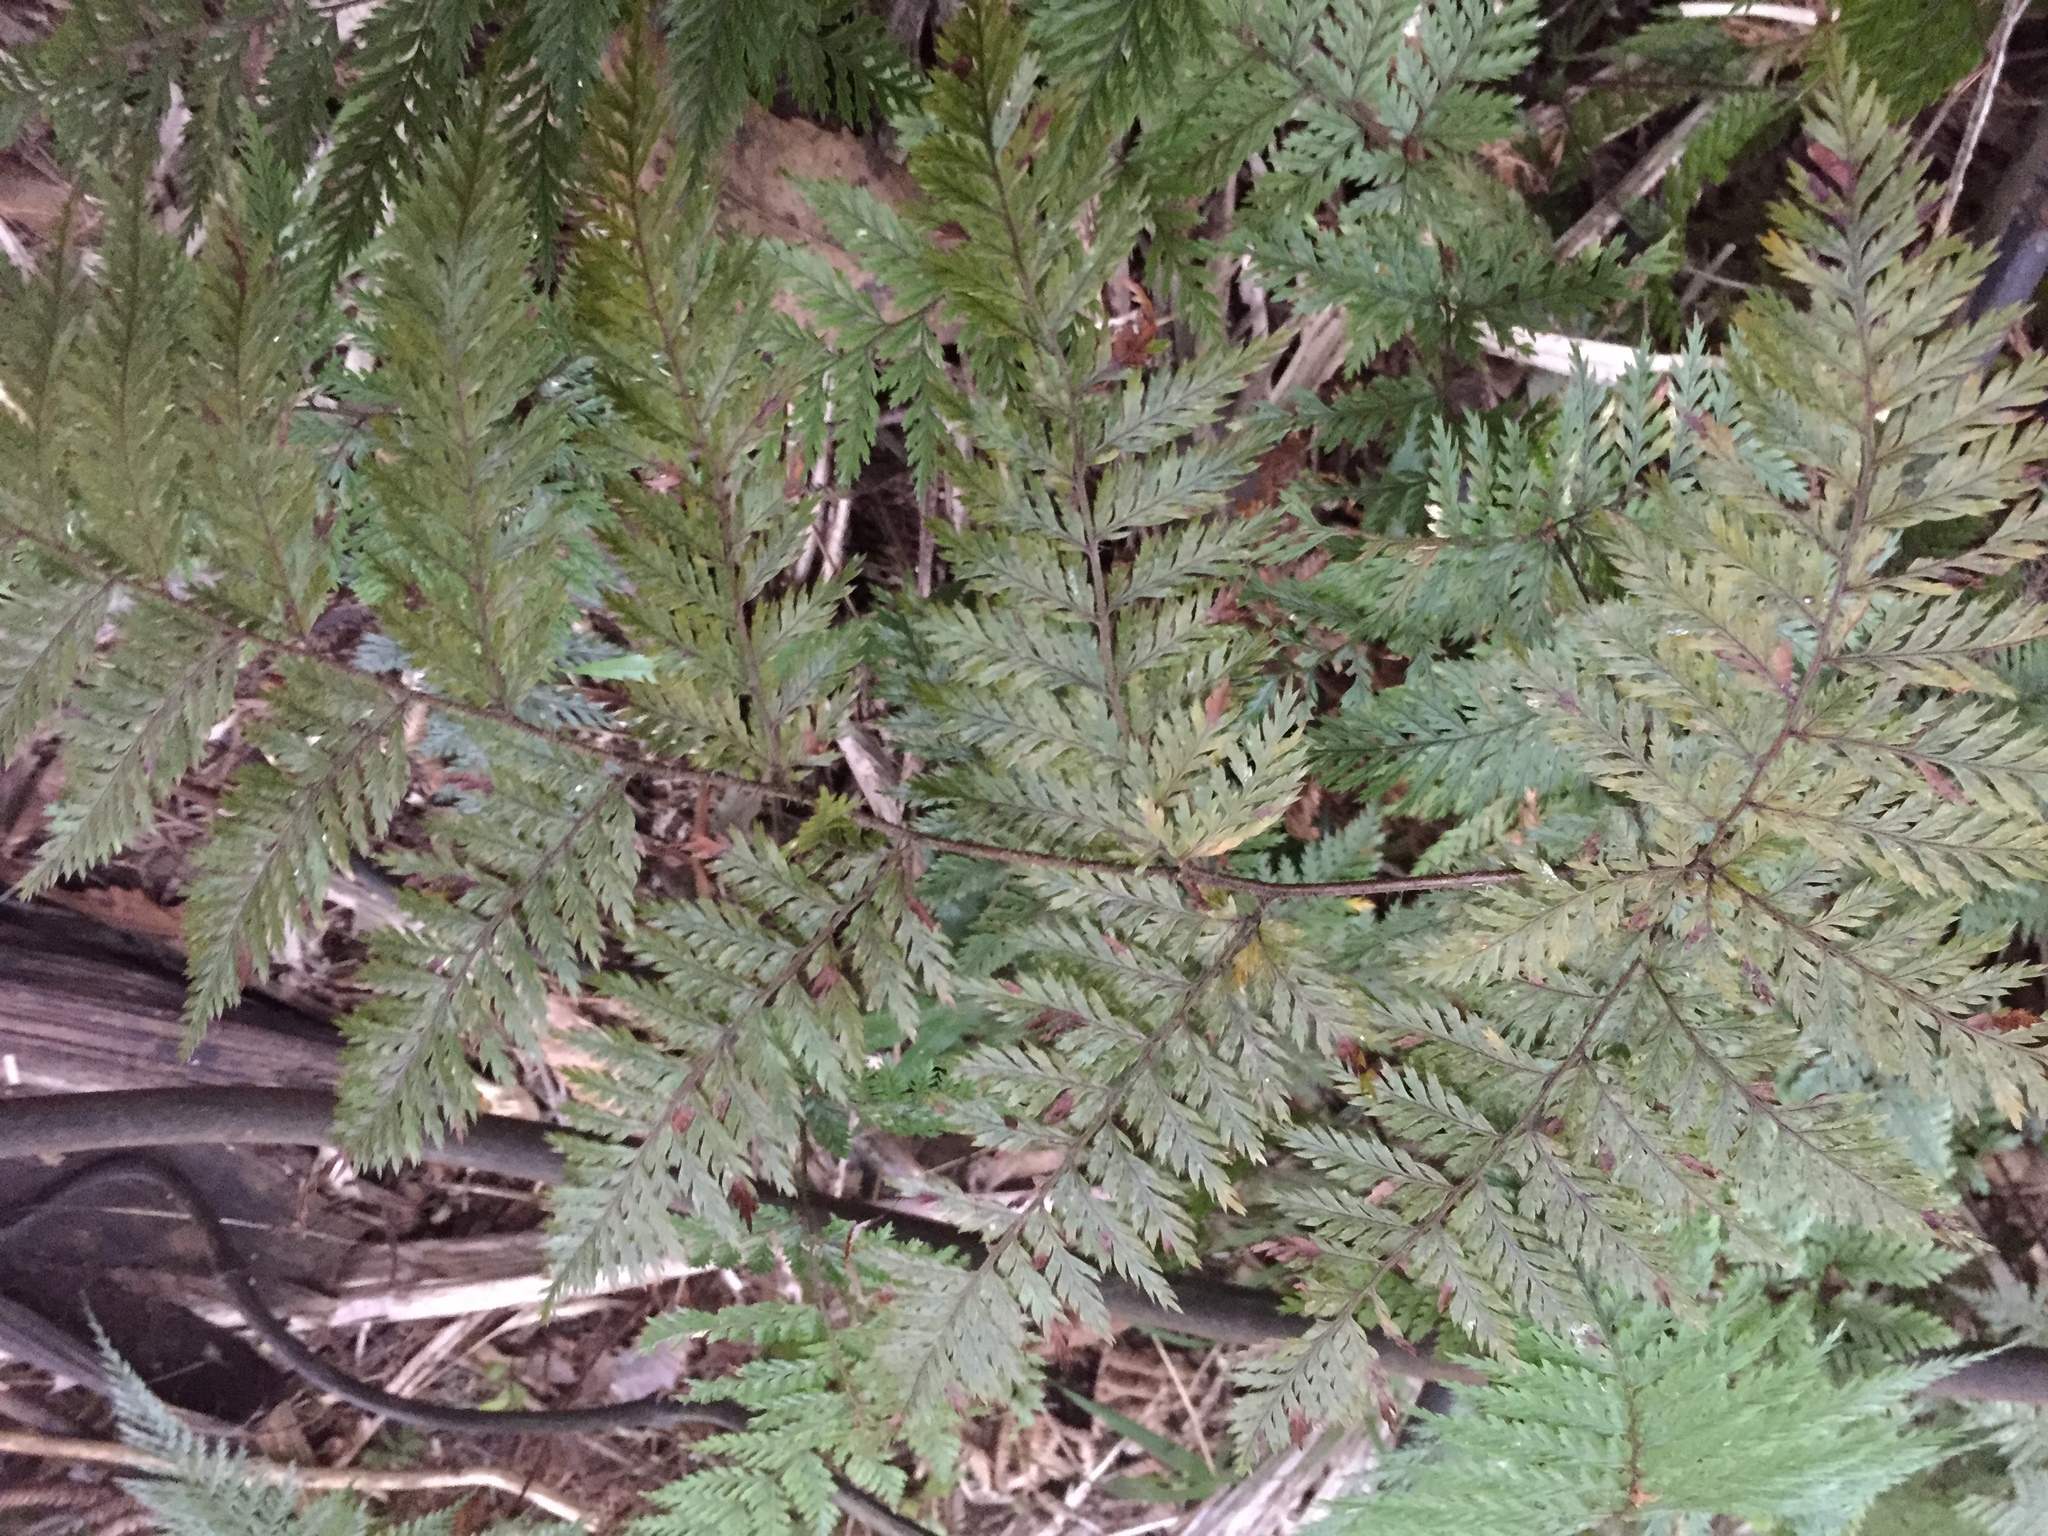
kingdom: Plantae
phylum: Tracheophyta
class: Polypodiopsida
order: Polypodiales
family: Dryopteridaceae
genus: Lastreopsis
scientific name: Lastreopsis hispida
